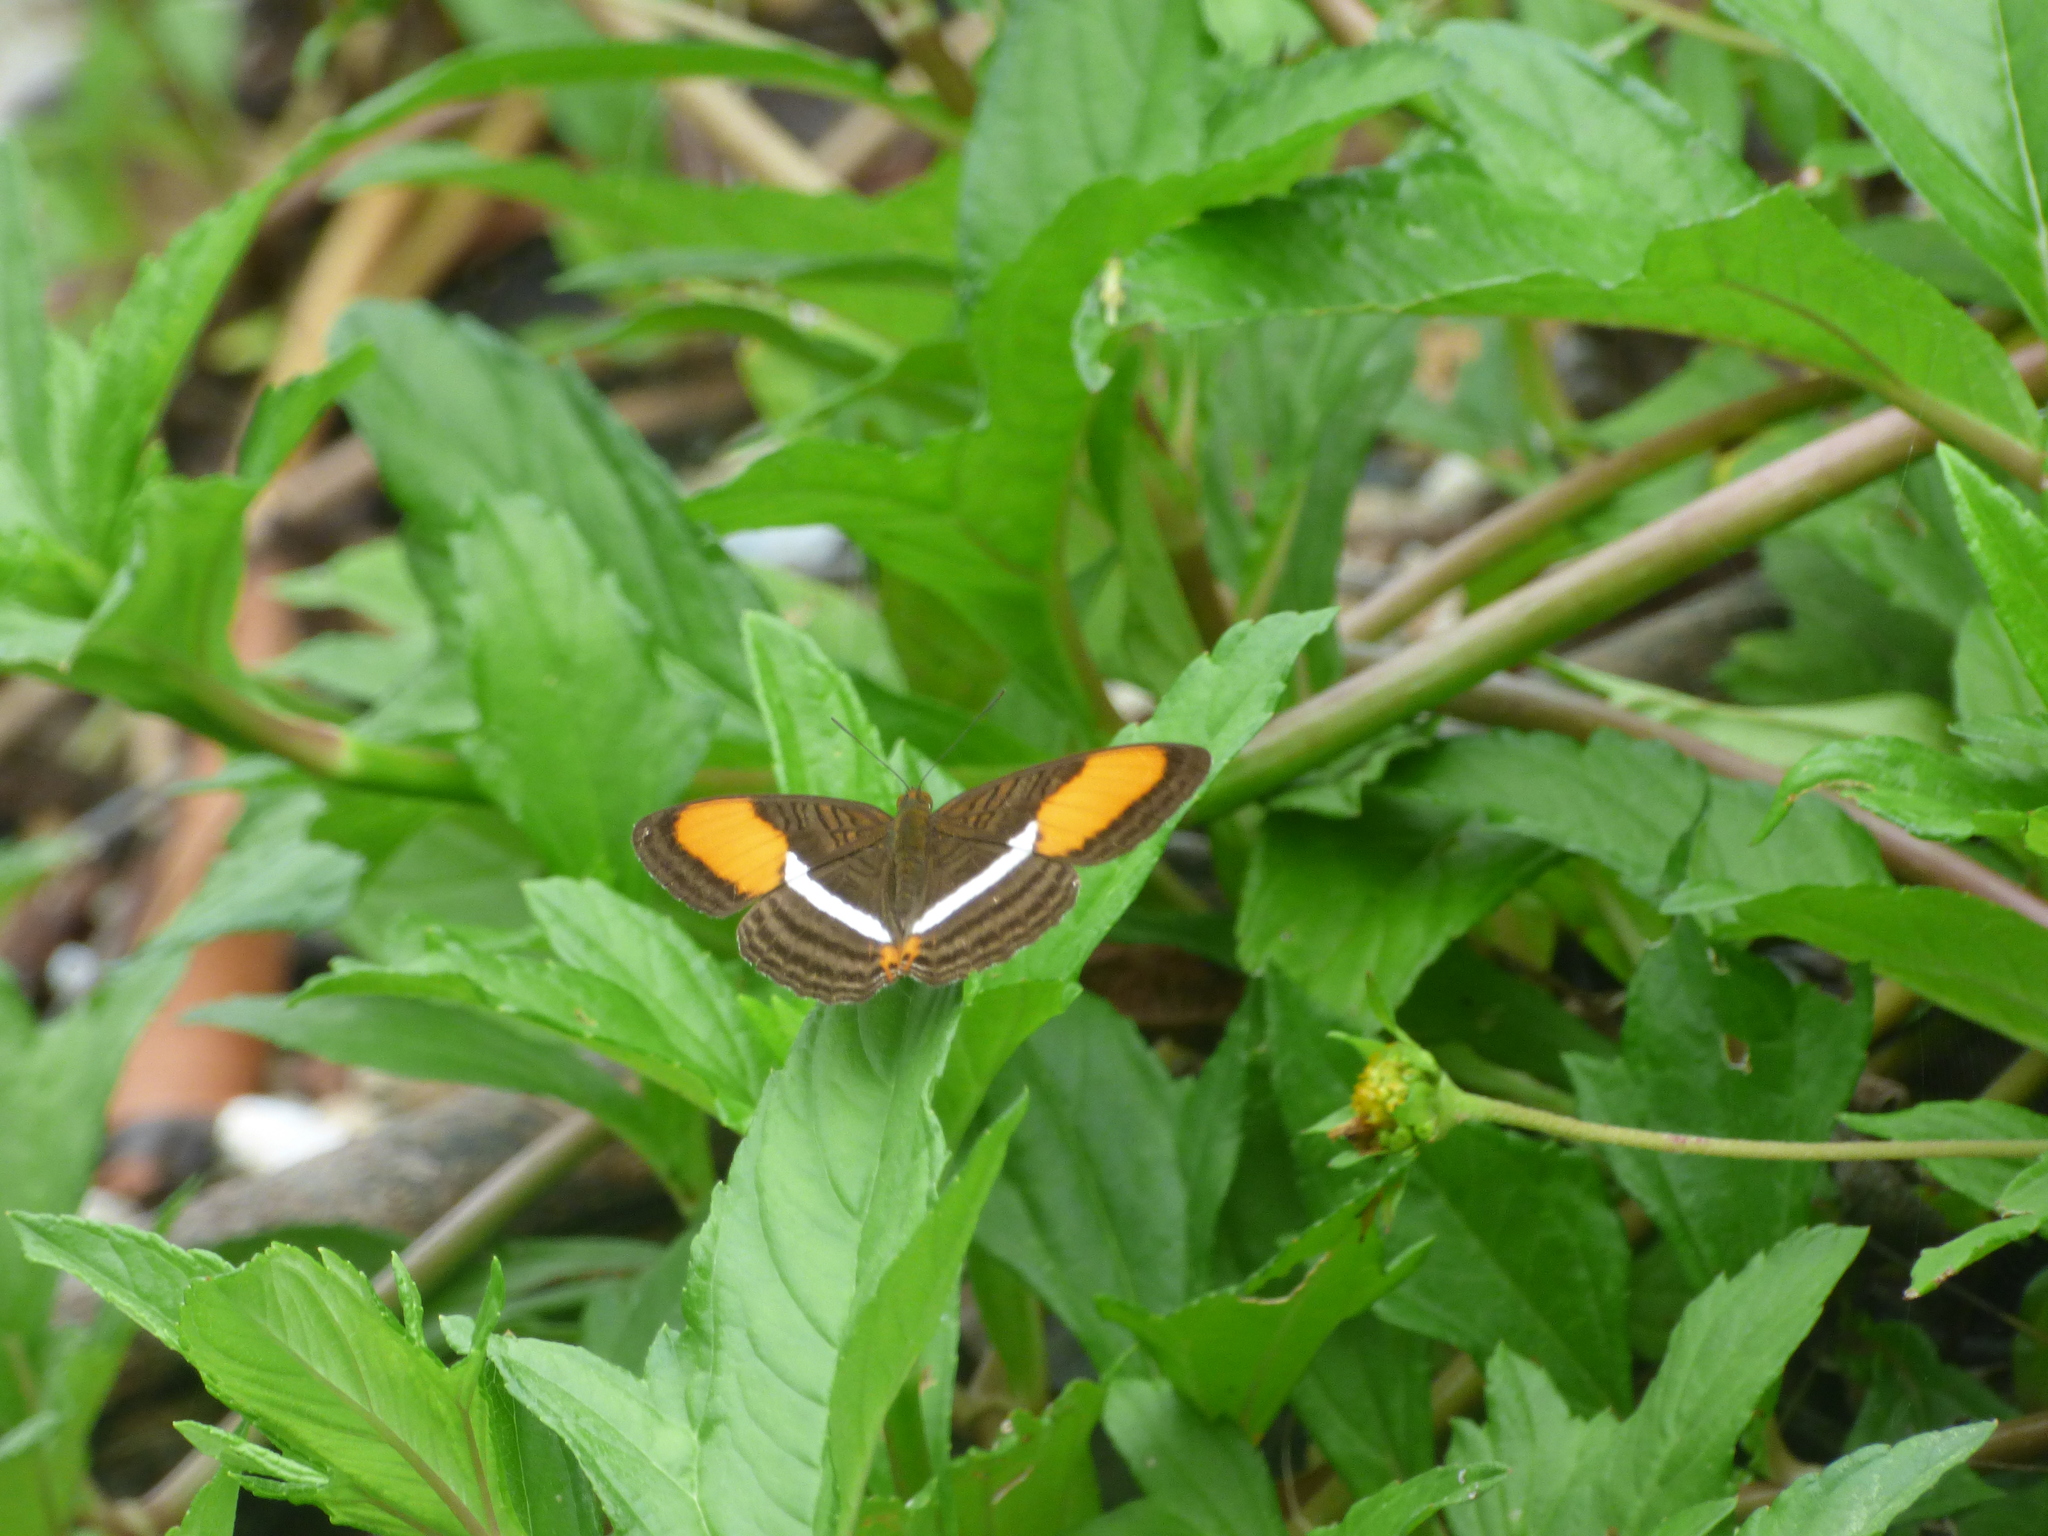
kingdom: Animalia
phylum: Arthropoda
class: Insecta
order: Lepidoptera
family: Nymphalidae
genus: Limenitis
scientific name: Limenitis cytherea
